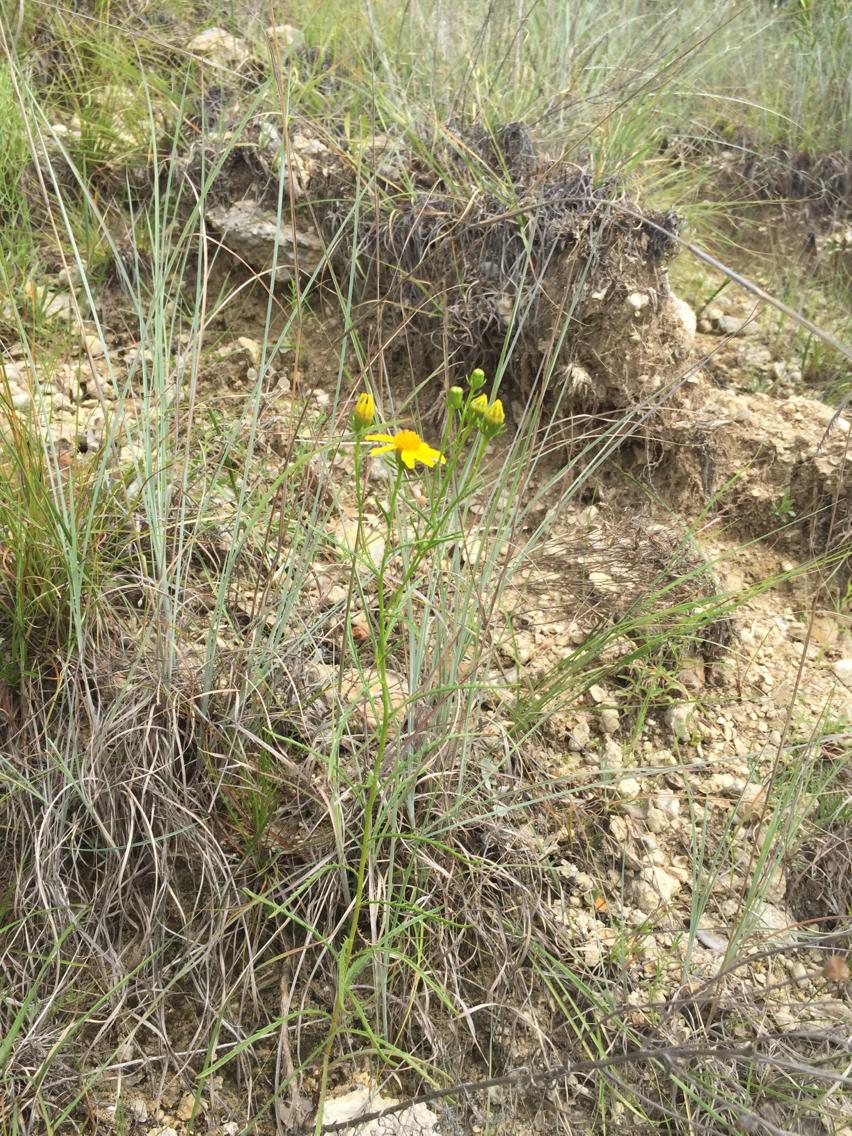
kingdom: Plantae
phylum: Tracheophyta
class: Magnoliopsida
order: Asterales
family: Asteraceae
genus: Dysodiopsis
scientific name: Dysodiopsis tagetoides
